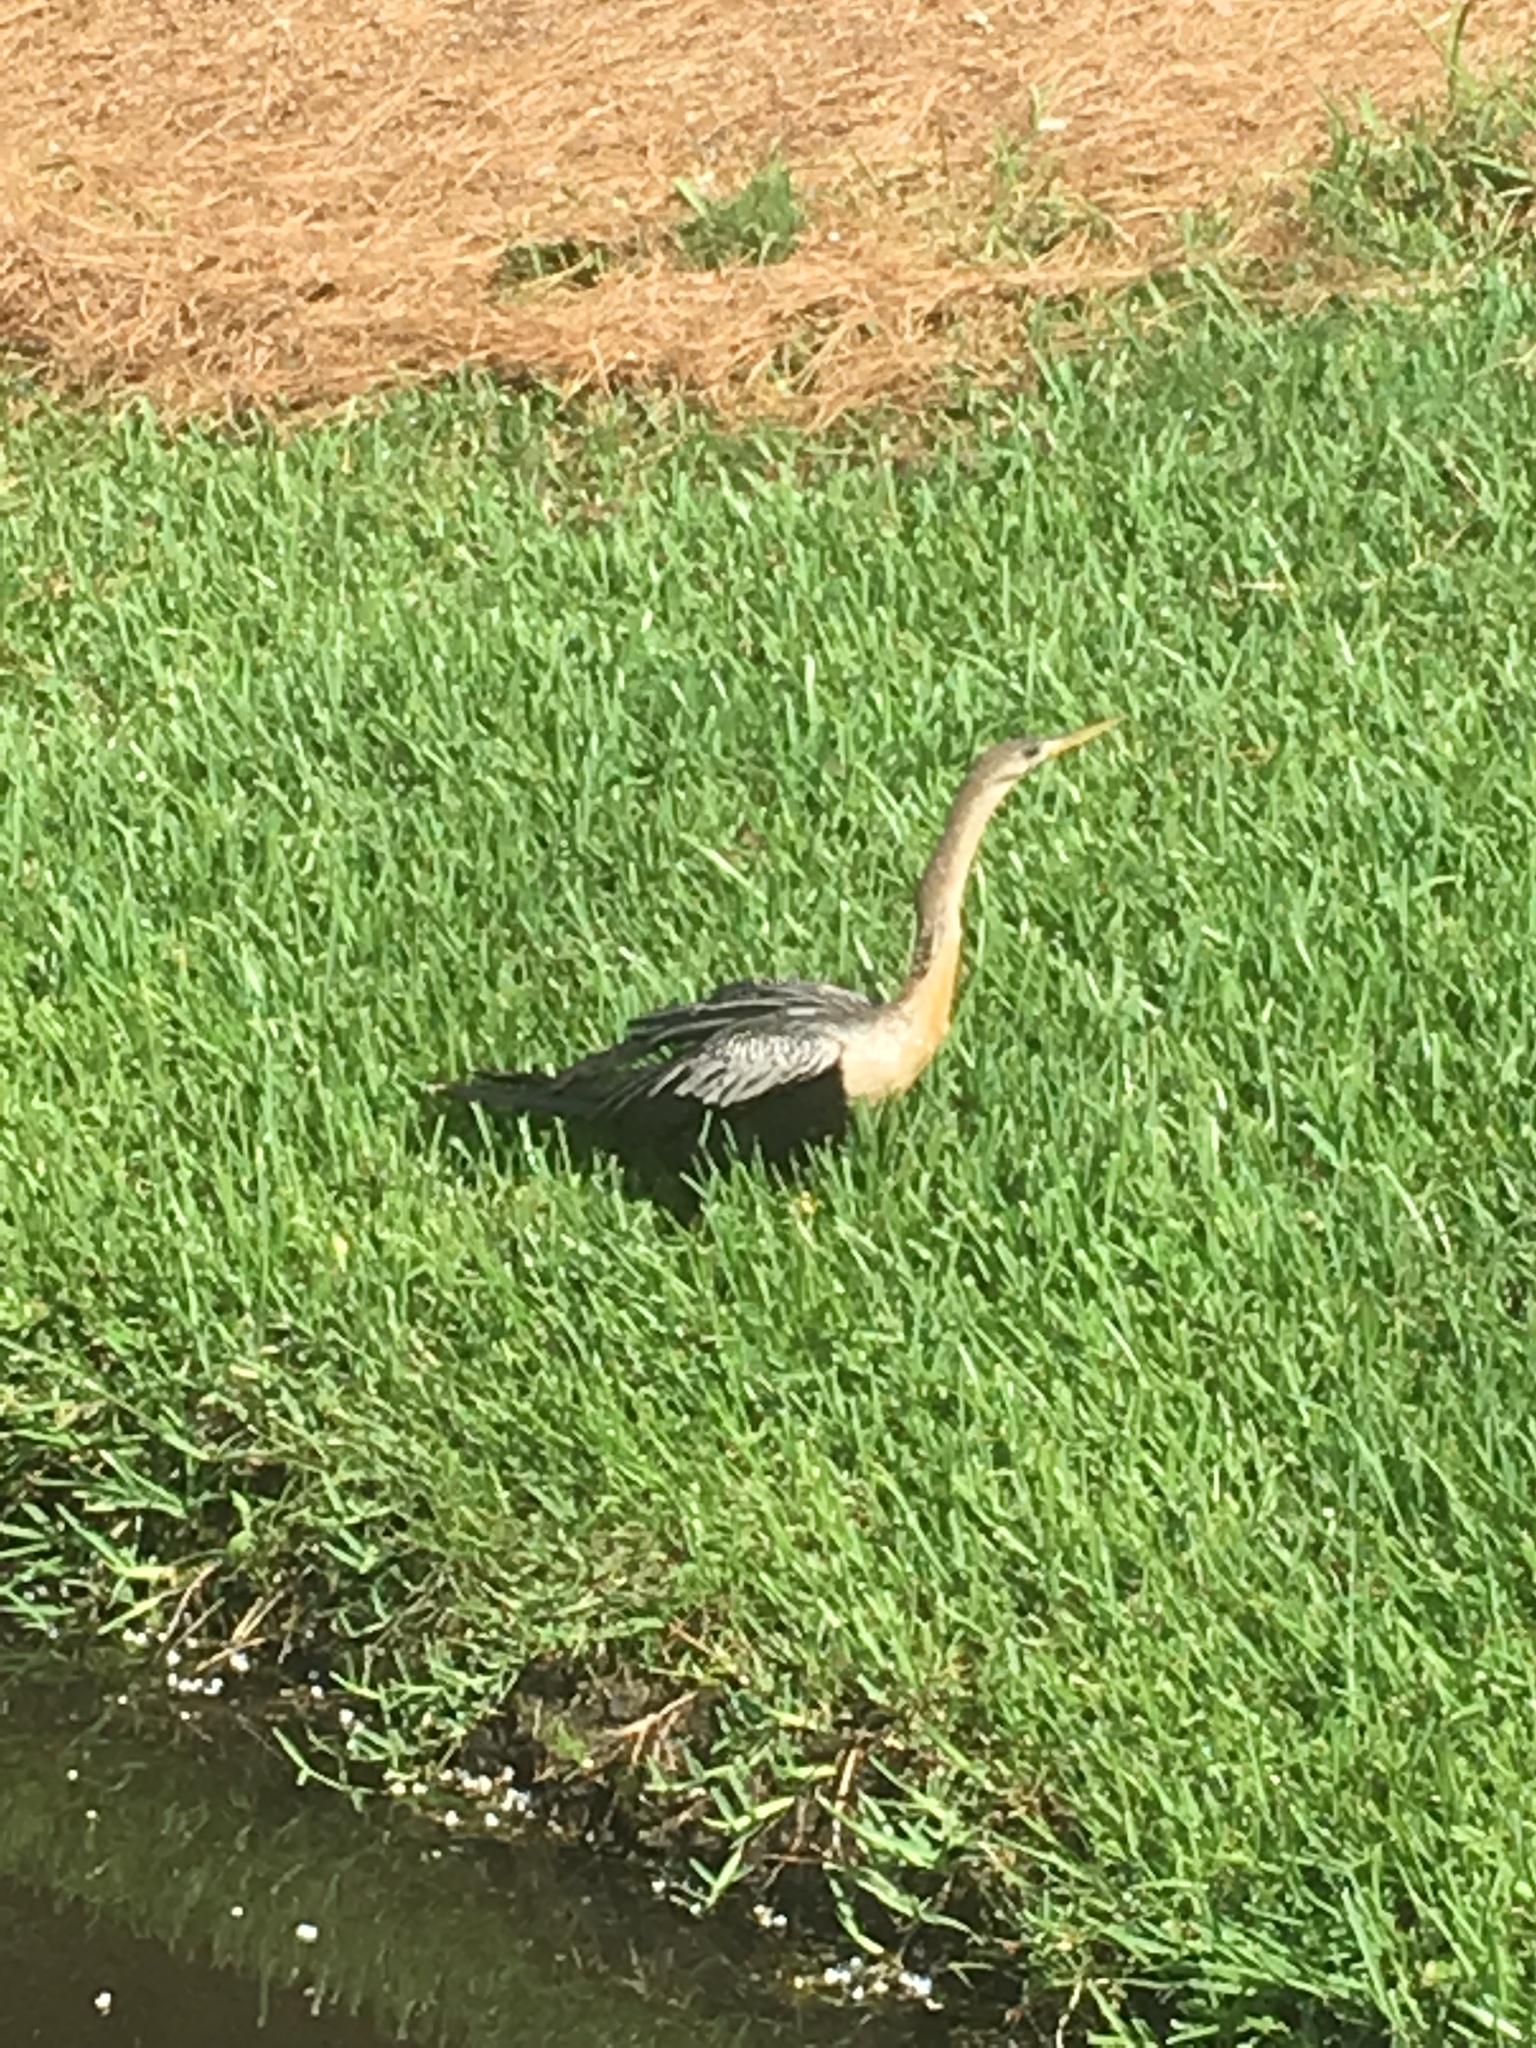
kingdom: Animalia
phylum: Chordata
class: Aves
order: Suliformes
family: Anhingidae
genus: Anhinga
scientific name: Anhinga anhinga
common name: Anhinga
